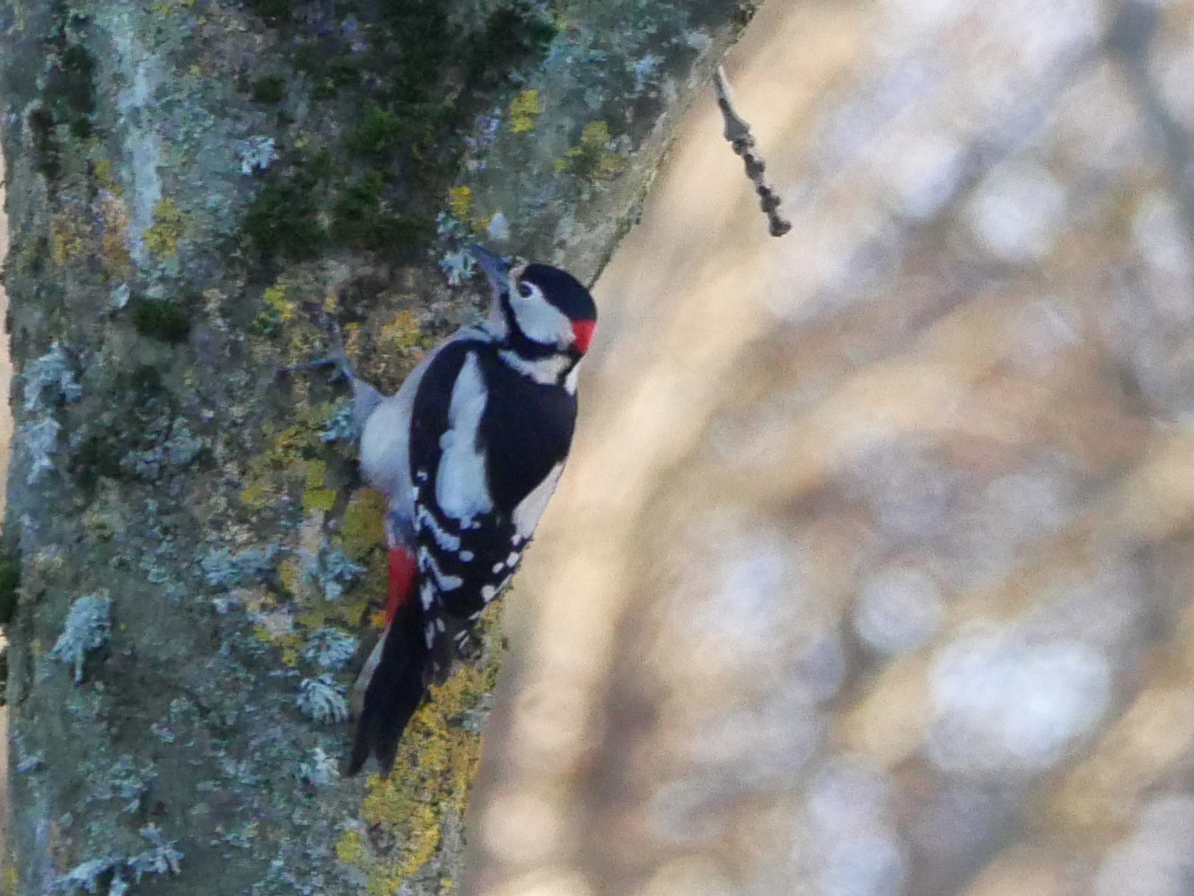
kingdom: Animalia
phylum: Chordata
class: Aves
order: Piciformes
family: Picidae
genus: Dendrocopos
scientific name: Dendrocopos major
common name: Great spotted woodpecker
